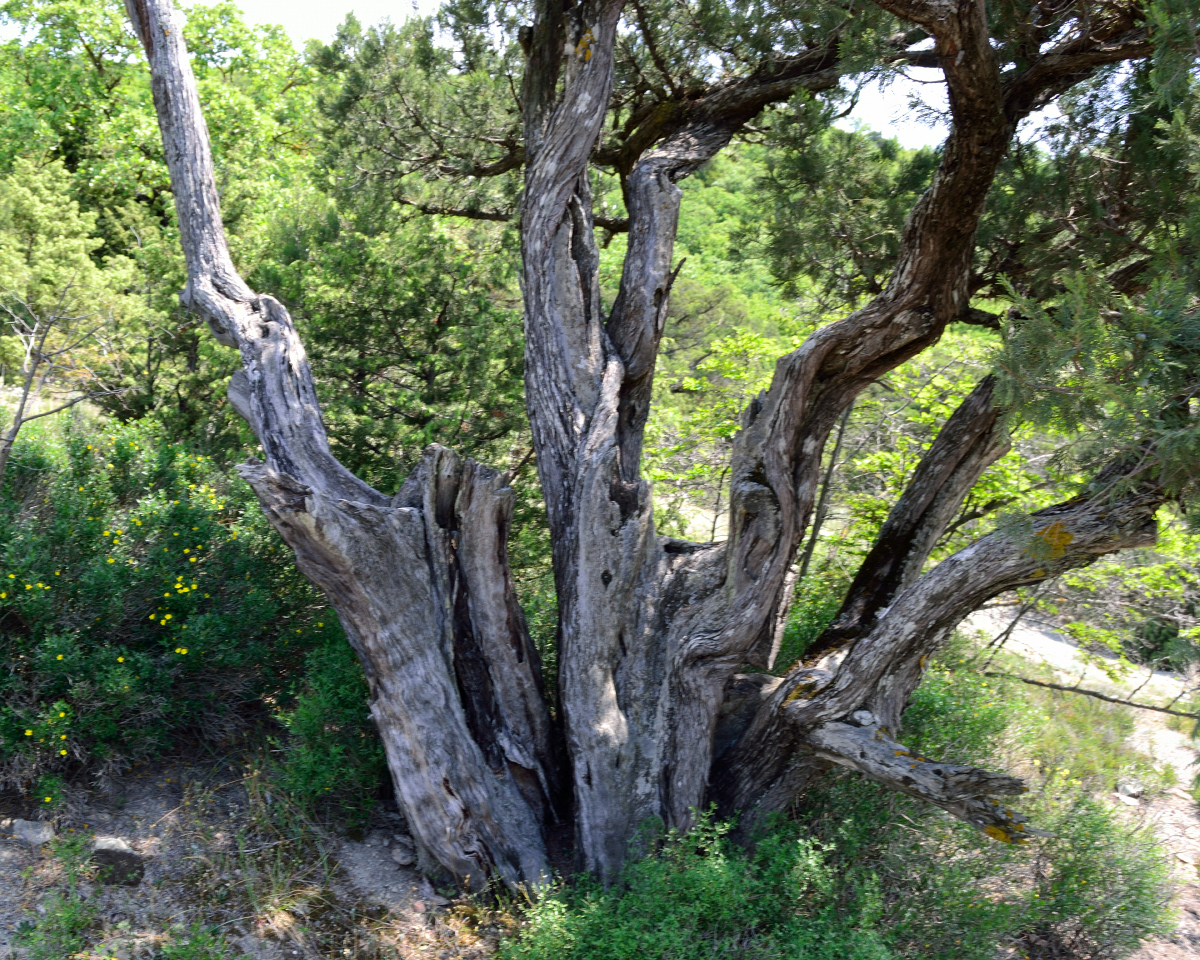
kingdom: Plantae
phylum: Tracheophyta
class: Pinopsida
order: Pinales
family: Cupressaceae
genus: Juniperus
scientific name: Juniperus excelsa
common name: Crimean juniper
